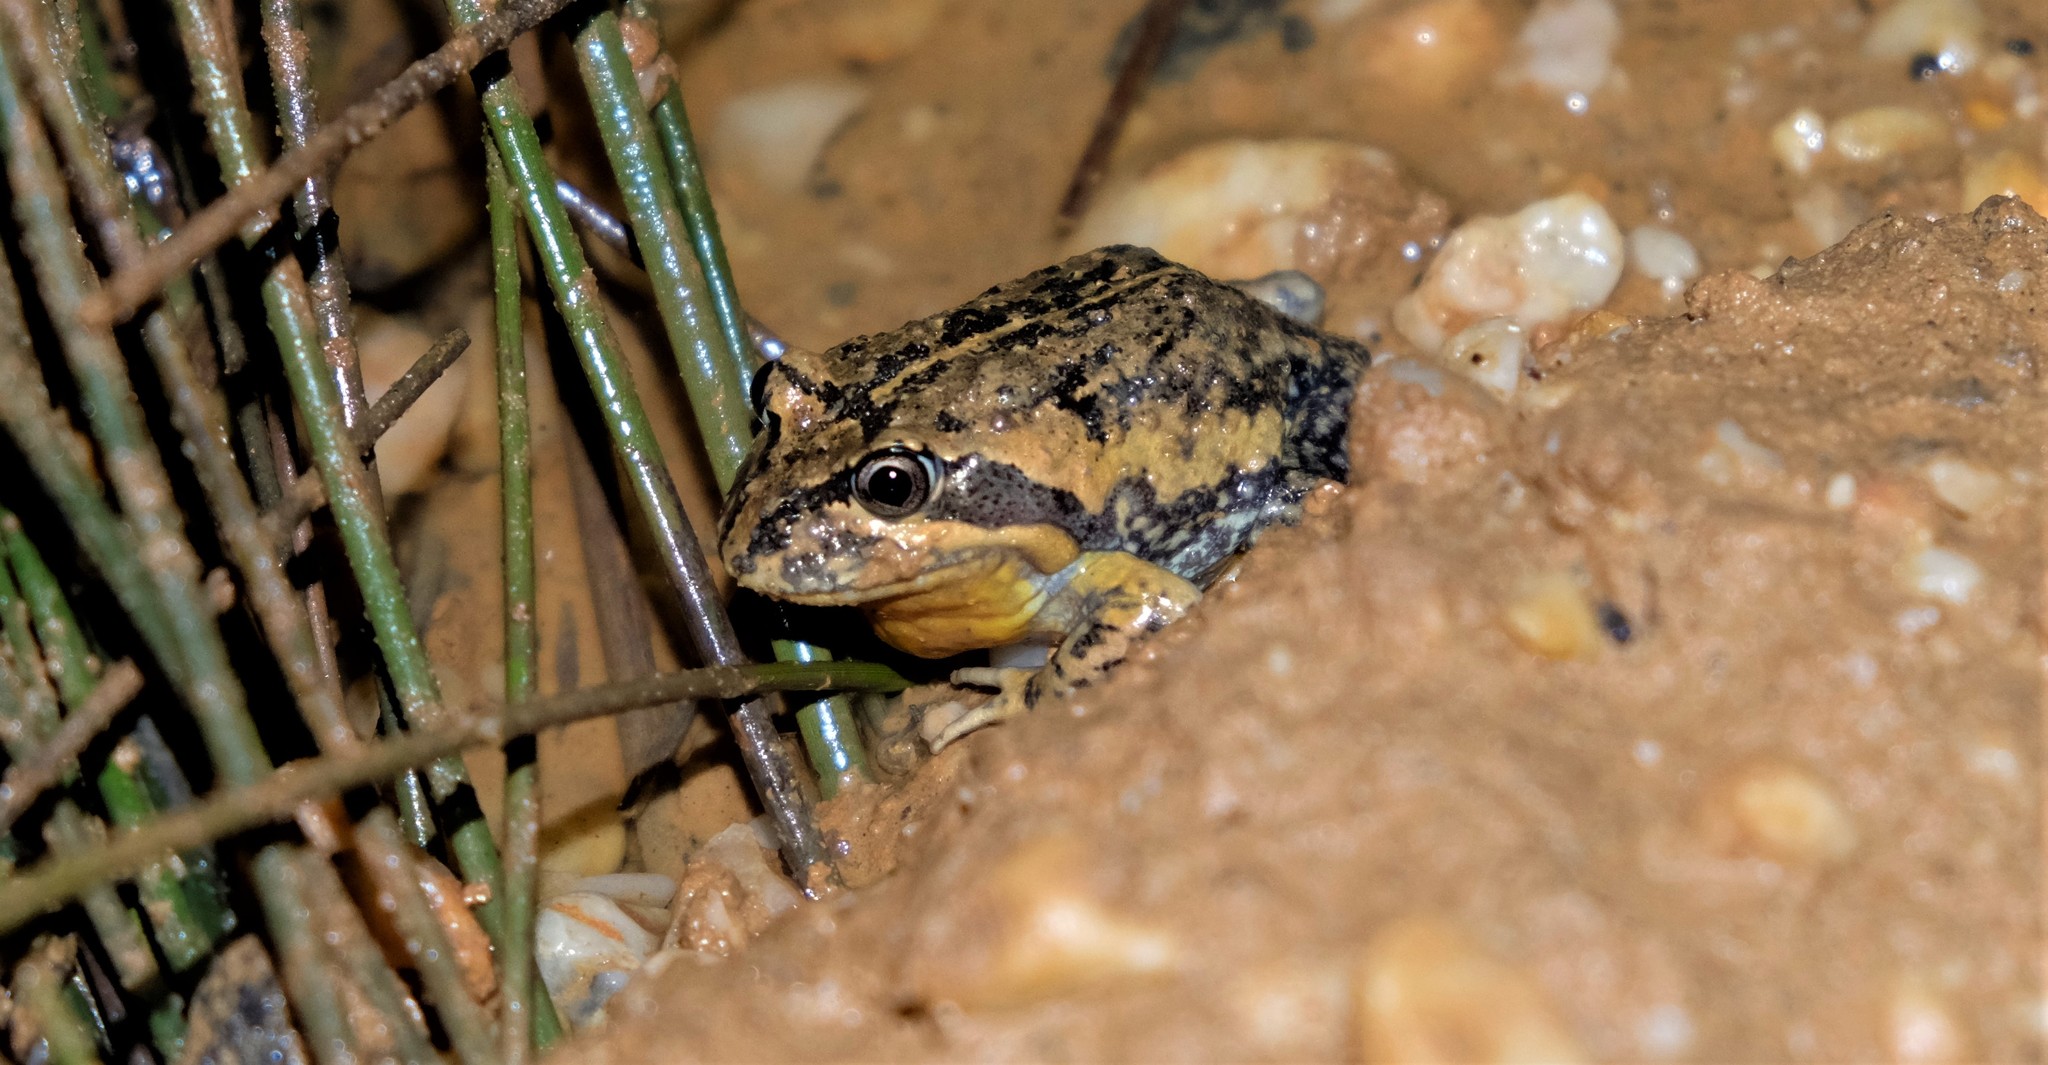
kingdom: Animalia
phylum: Chordata
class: Amphibia
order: Anura
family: Limnodynastidae
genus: Limnodynastes
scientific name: Limnodynastes dumerilii
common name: Banjo frog
